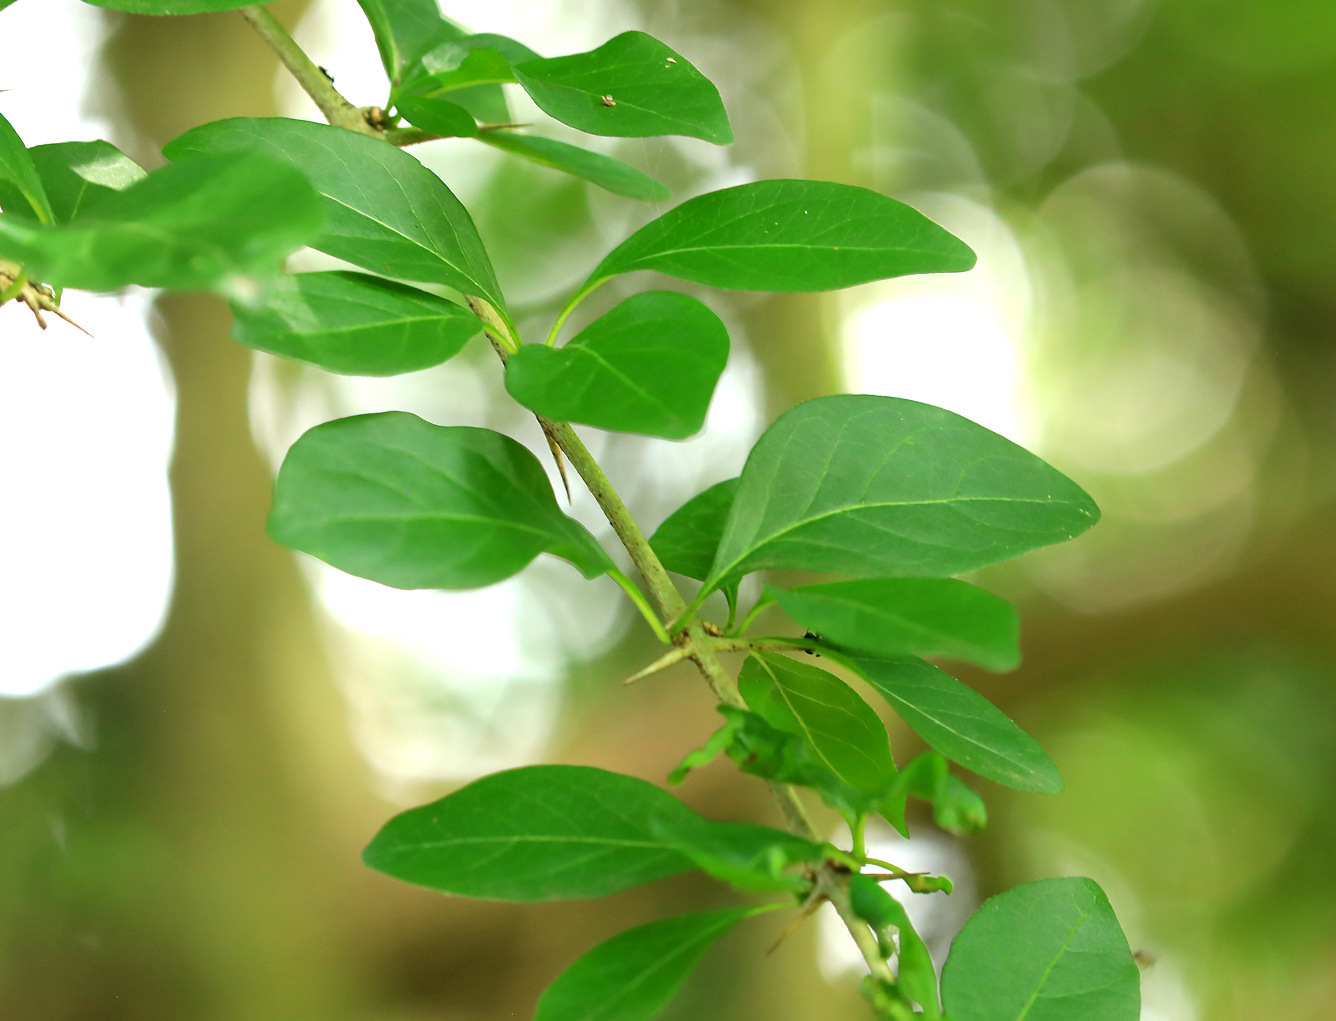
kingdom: Plantae
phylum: Tracheophyta
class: Magnoliopsida
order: Gentianales
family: Rubiaceae
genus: Catunaregam
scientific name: Catunaregam spinosa
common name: Emetic-nut
